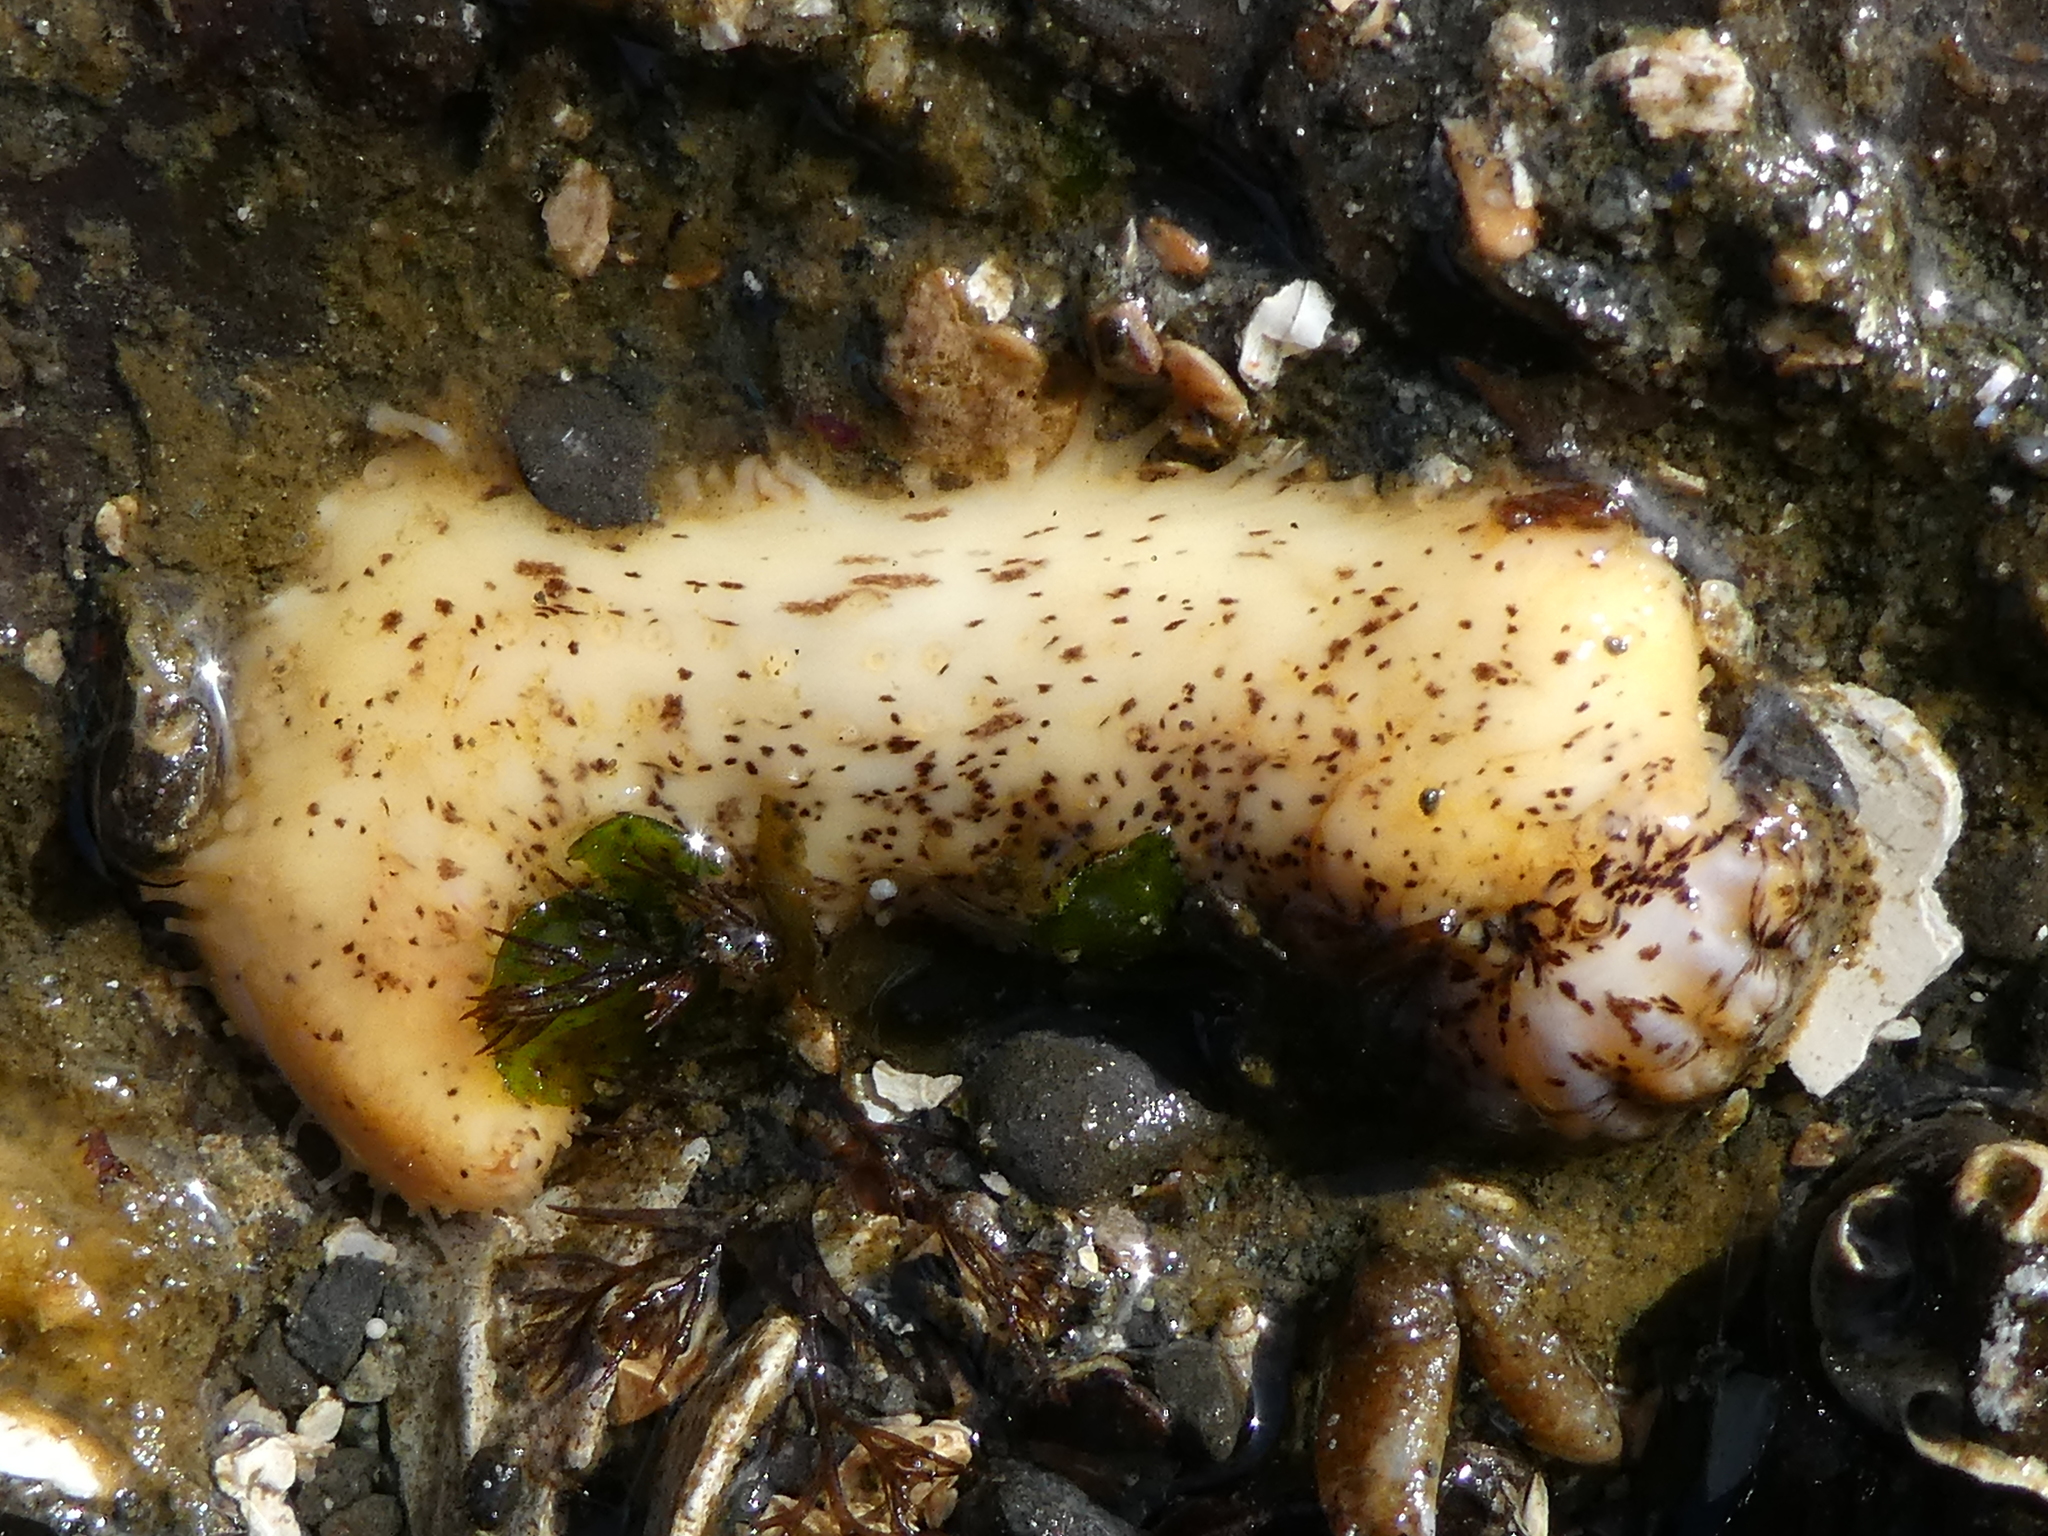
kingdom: Animalia
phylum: Echinodermata
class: Holothuroidea
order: Dendrochirotida
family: Cucumariidae
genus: Cucumaria
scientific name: Cucumaria piperata
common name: Peppered sea cucumber
